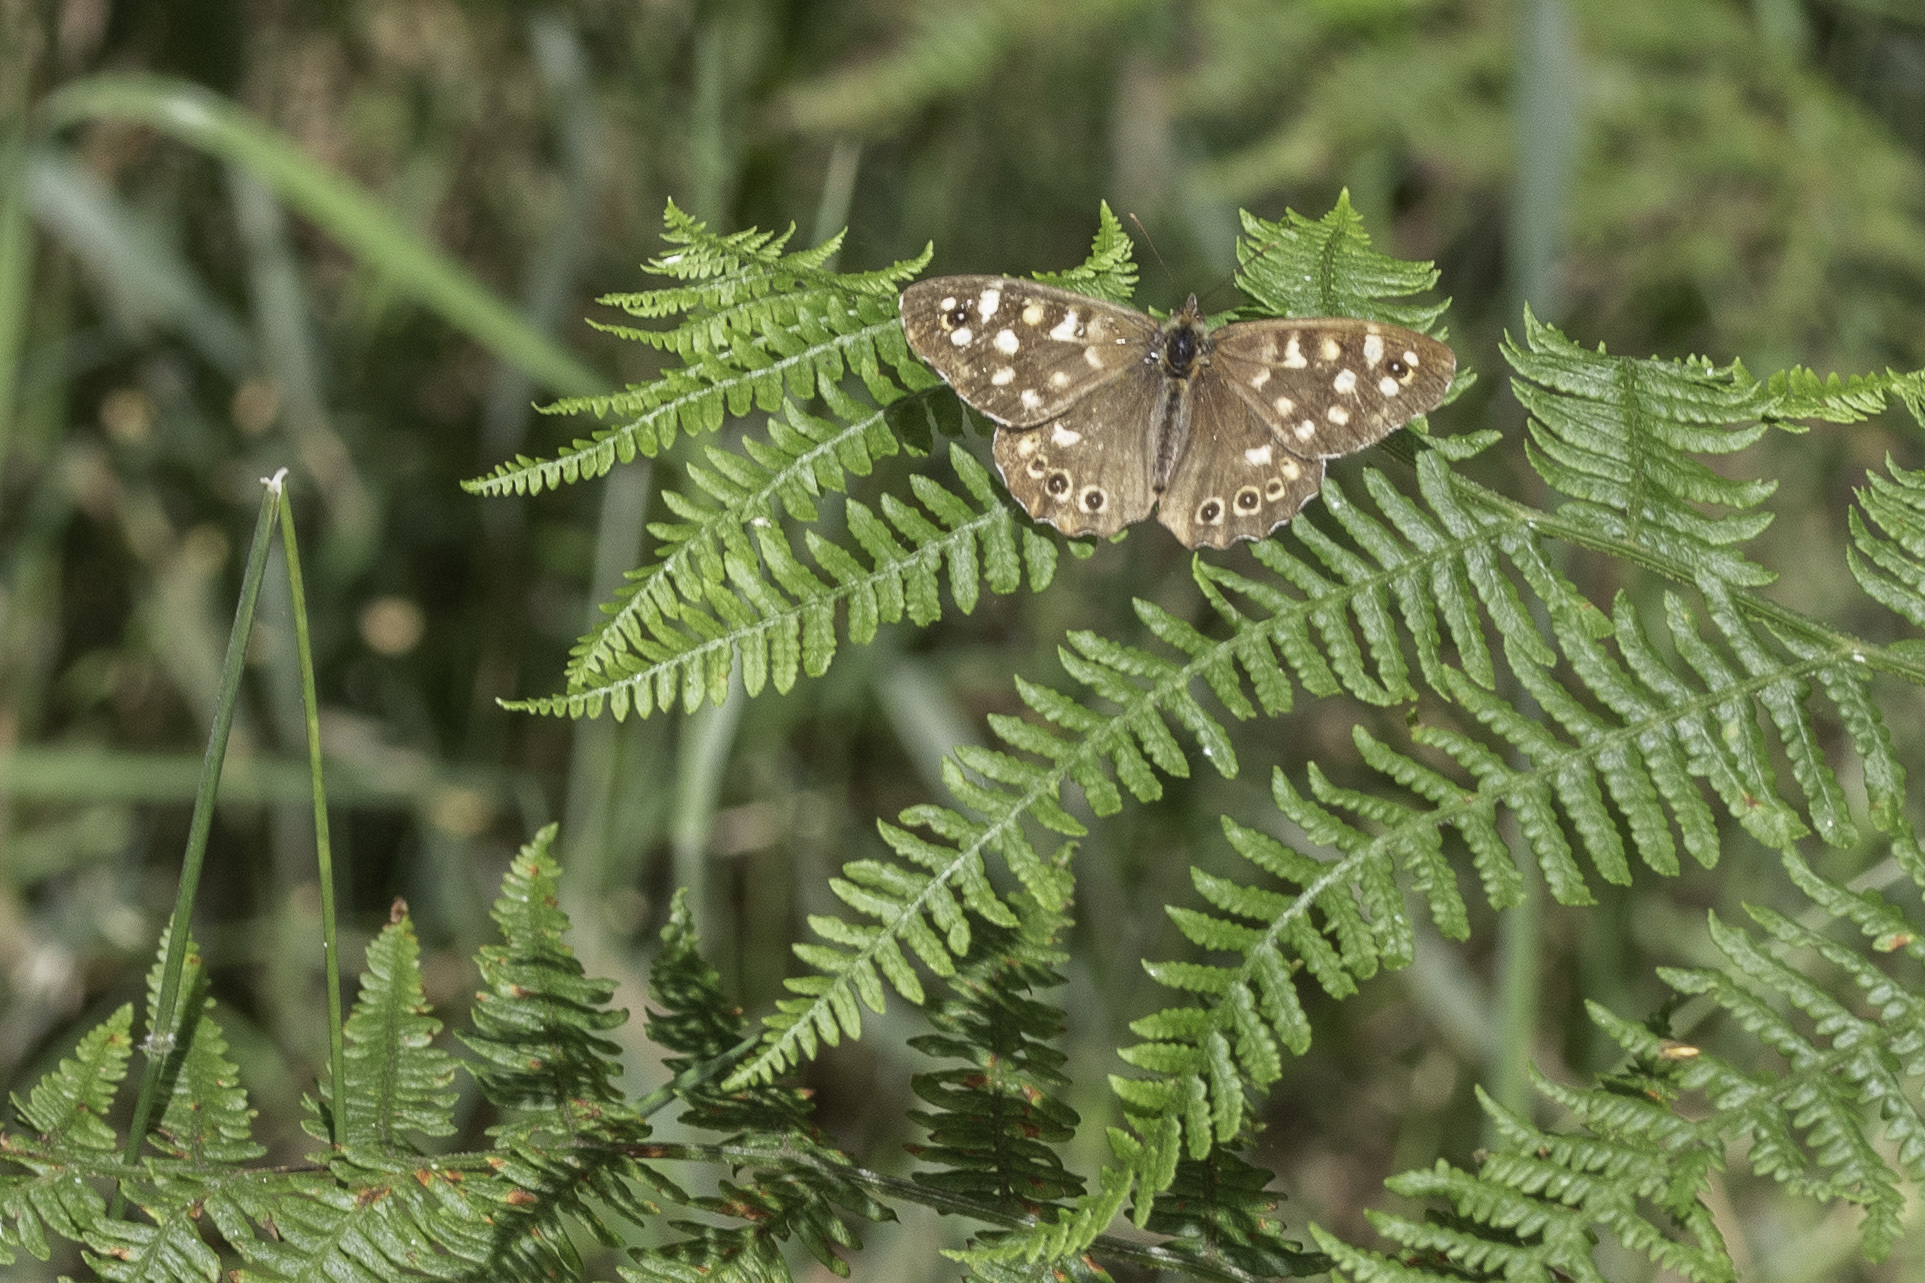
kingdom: Animalia
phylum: Arthropoda
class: Insecta
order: Lepidoptera
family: Nymphalidae
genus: Pararge
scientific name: Pararge aegeria
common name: Speckled wood
